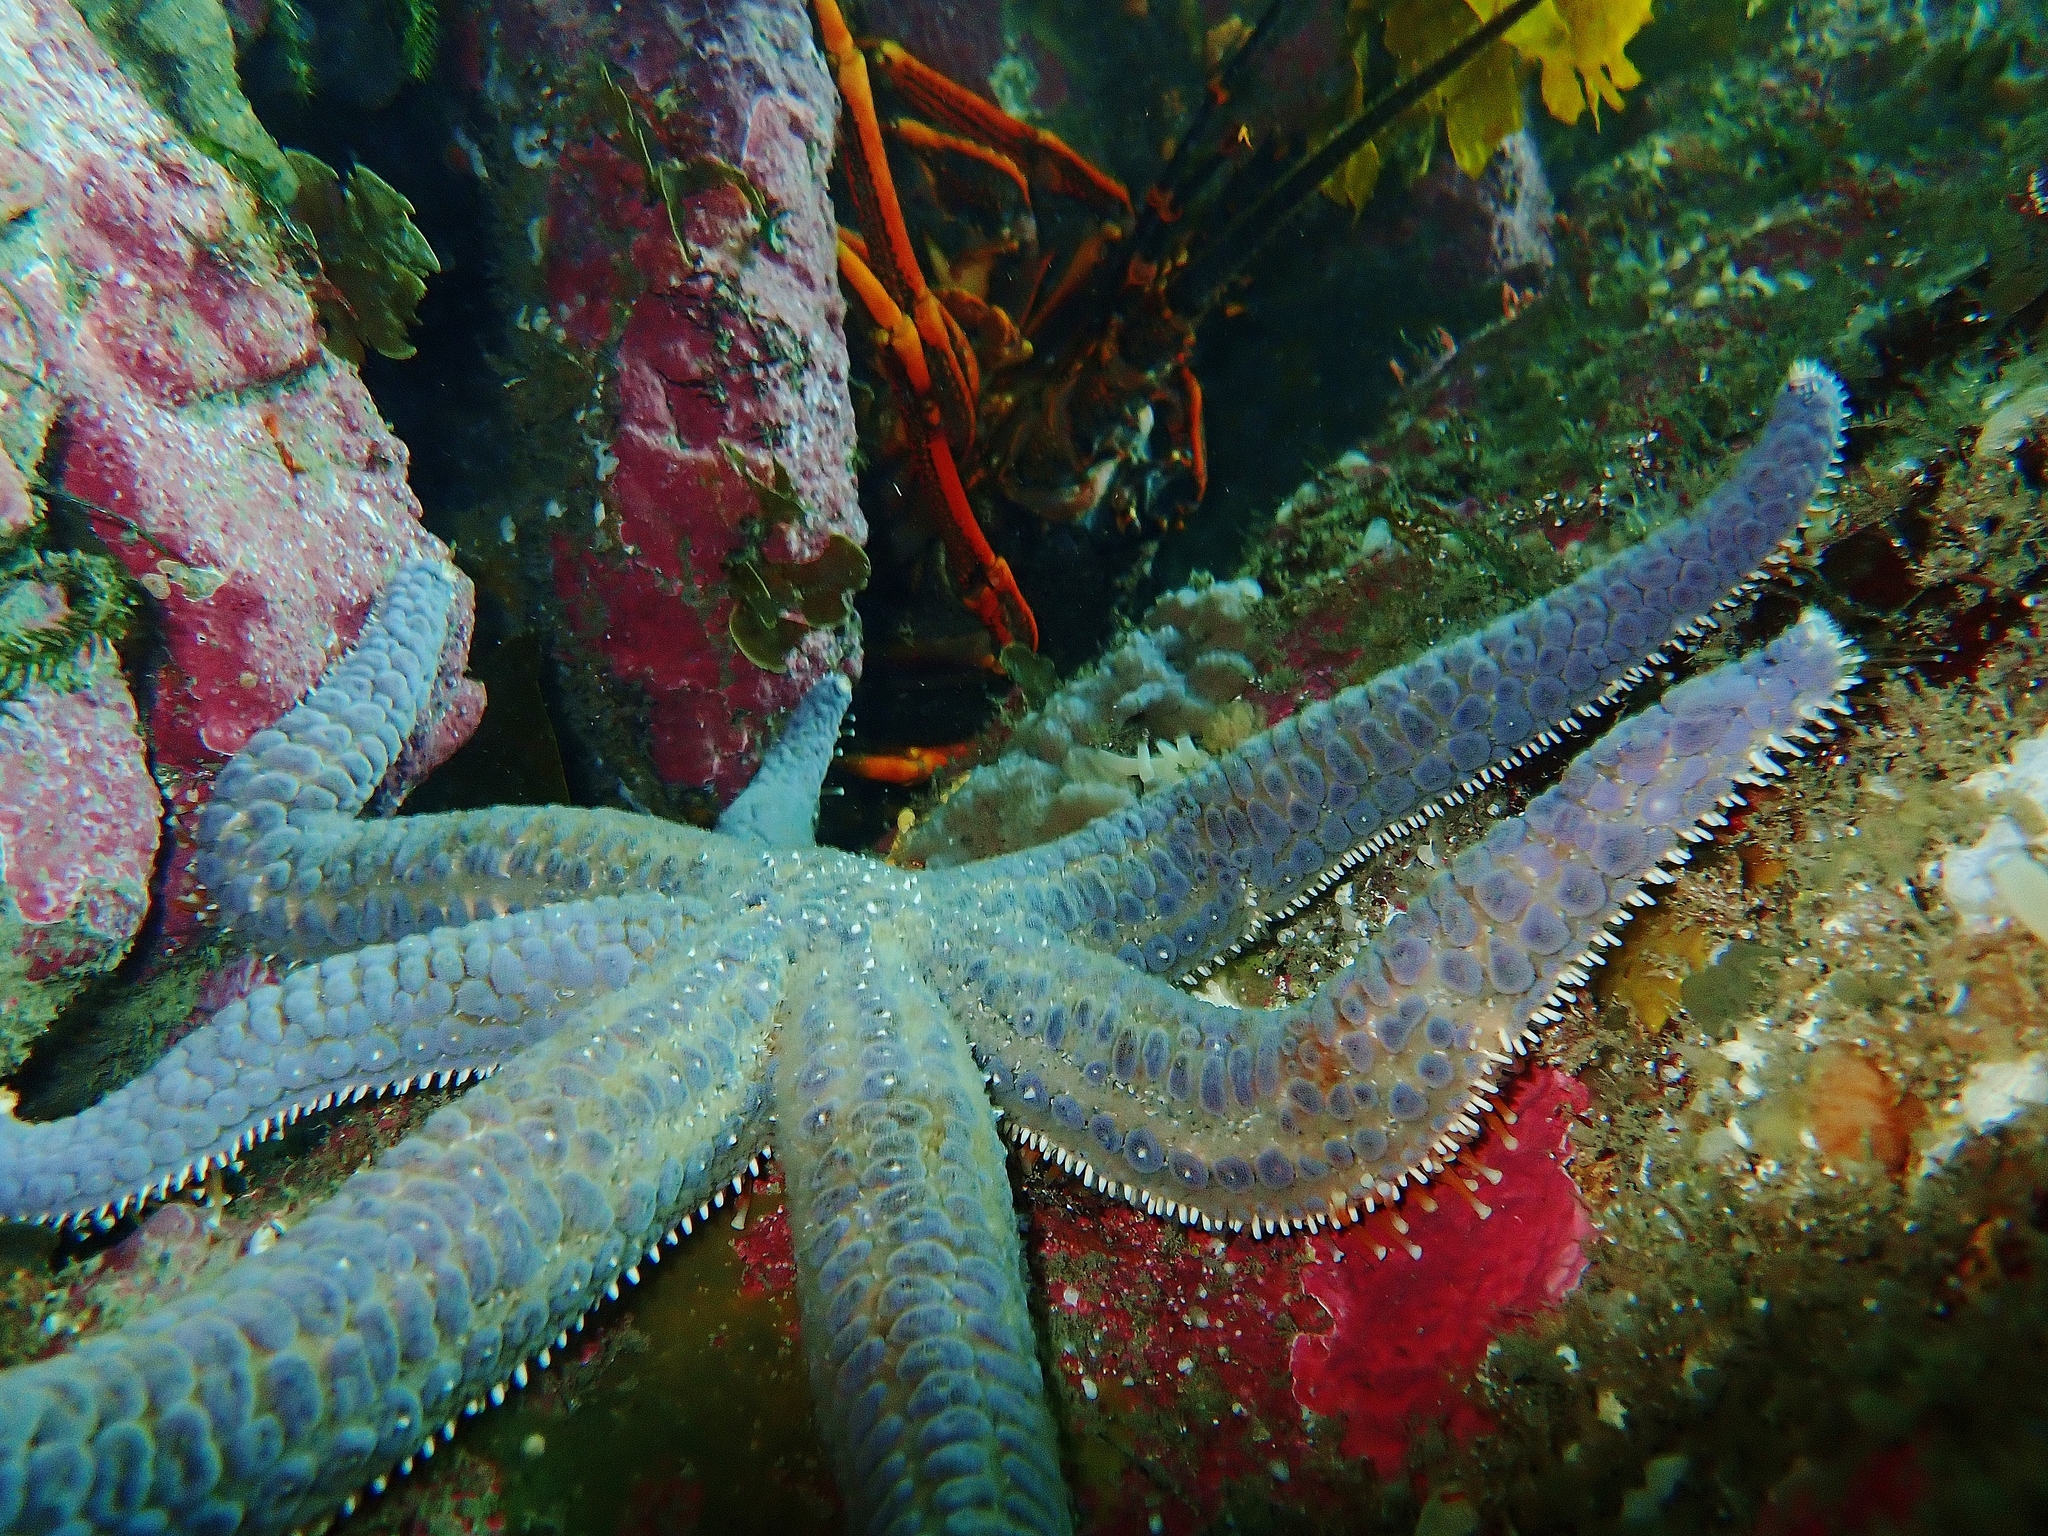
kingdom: Animalia
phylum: Echinodermata
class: Asteroidea
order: Forcipulatida
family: Asteriidae
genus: Astrostole
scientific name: Astrostole scabra
